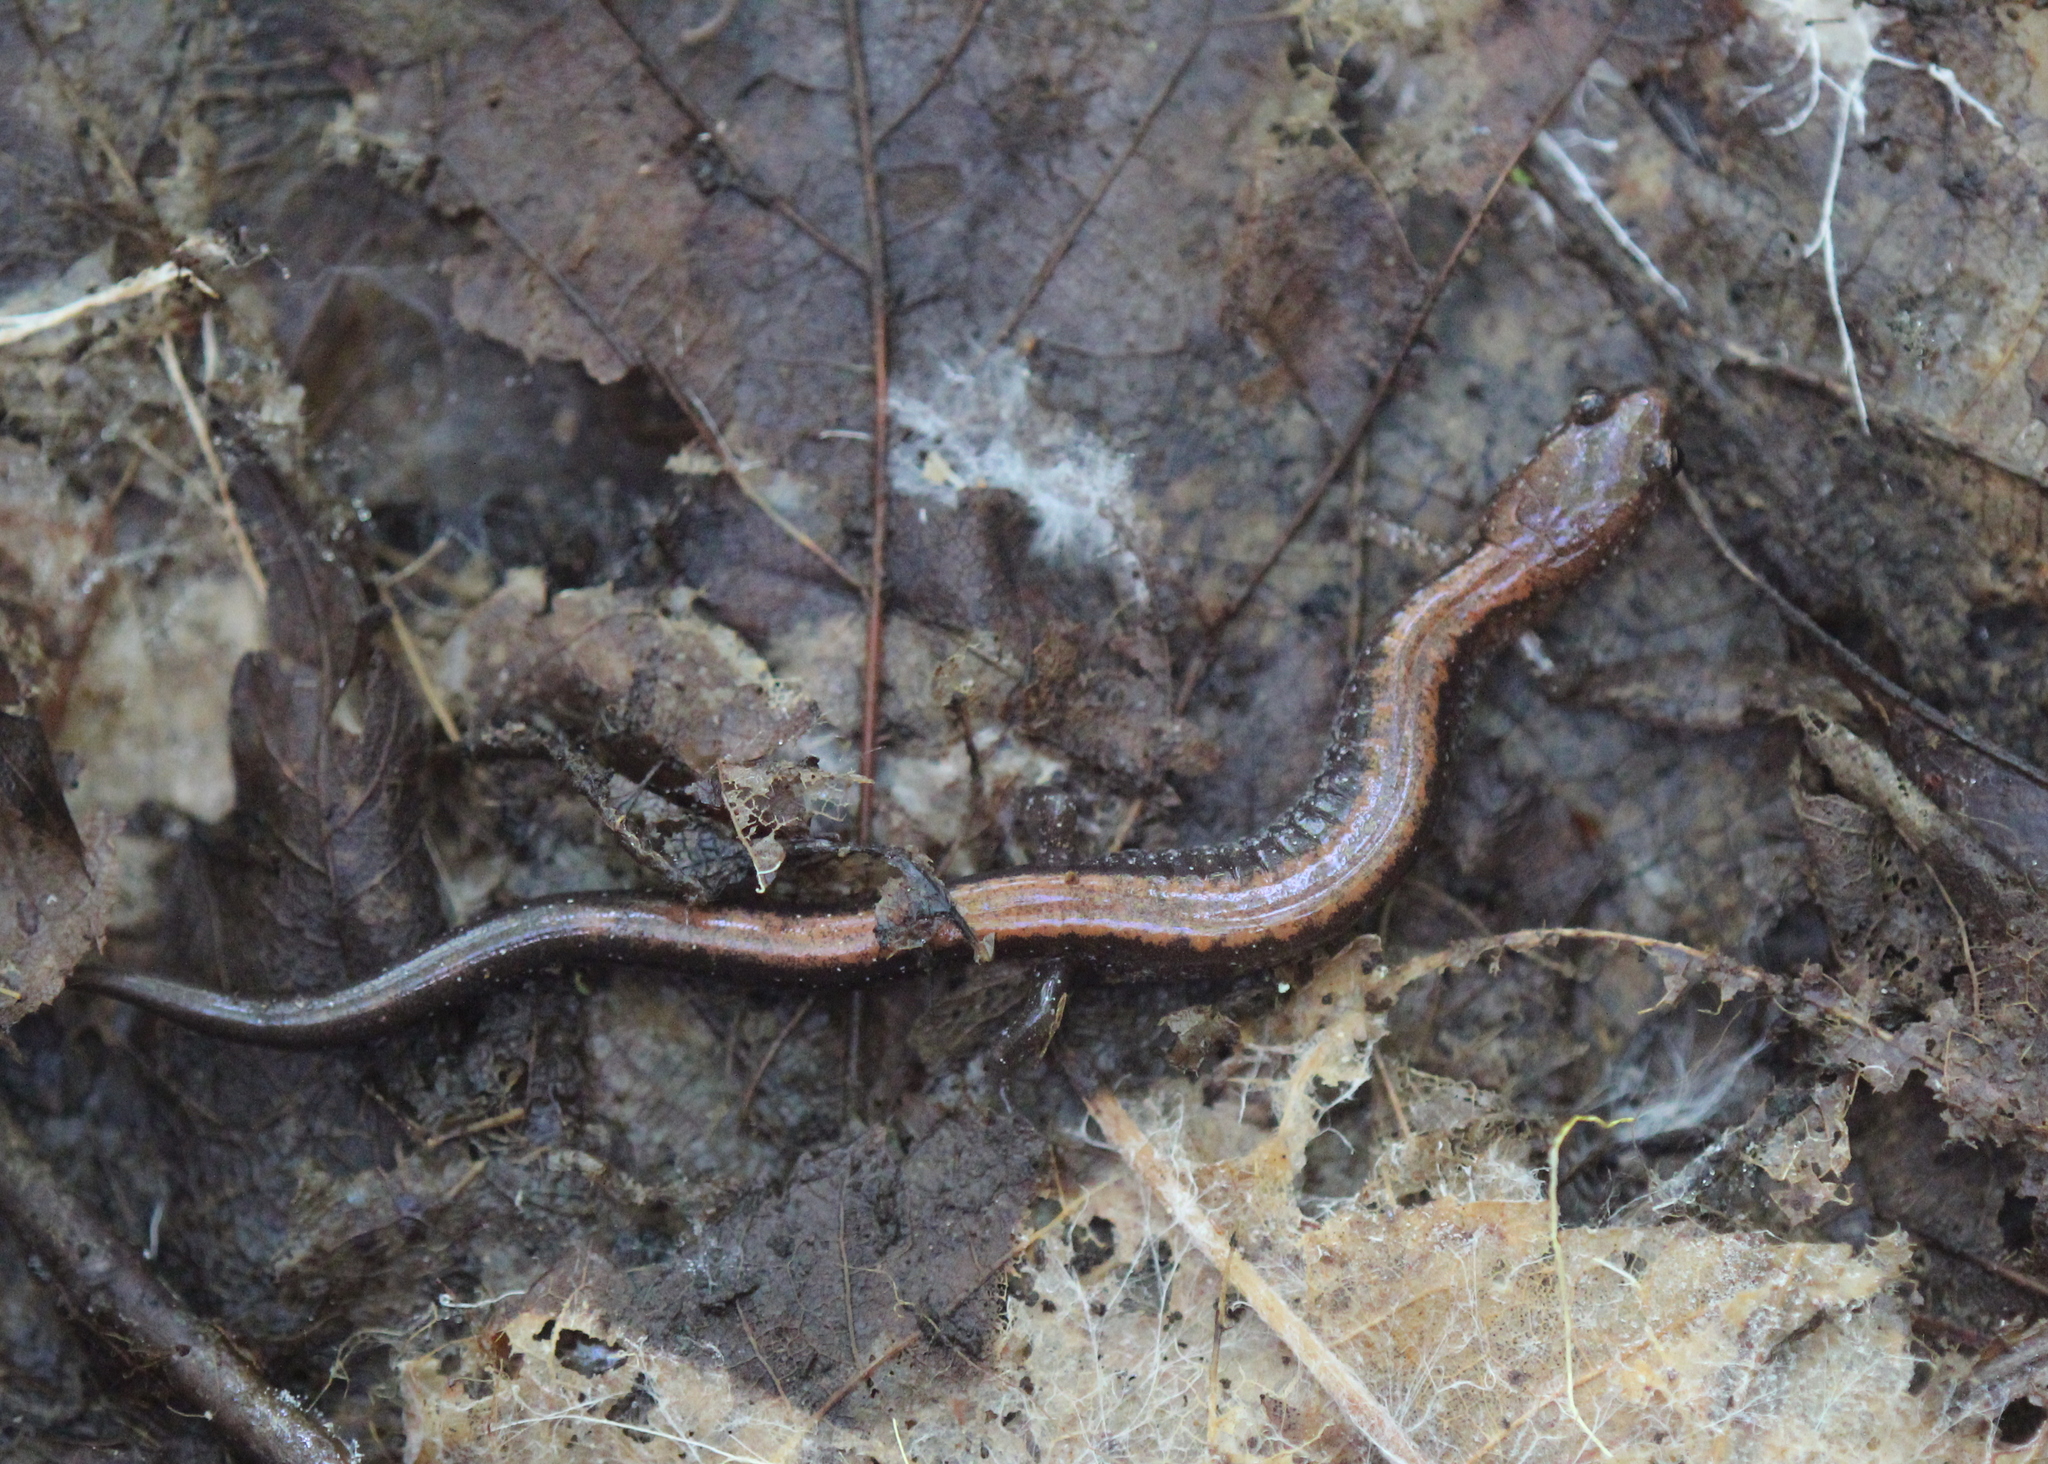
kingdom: Animalia
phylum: Chordata
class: Amphibia
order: Caudata
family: Plethodontidae
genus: Plethodon
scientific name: Plethodon cinereus
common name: Redback salamander
